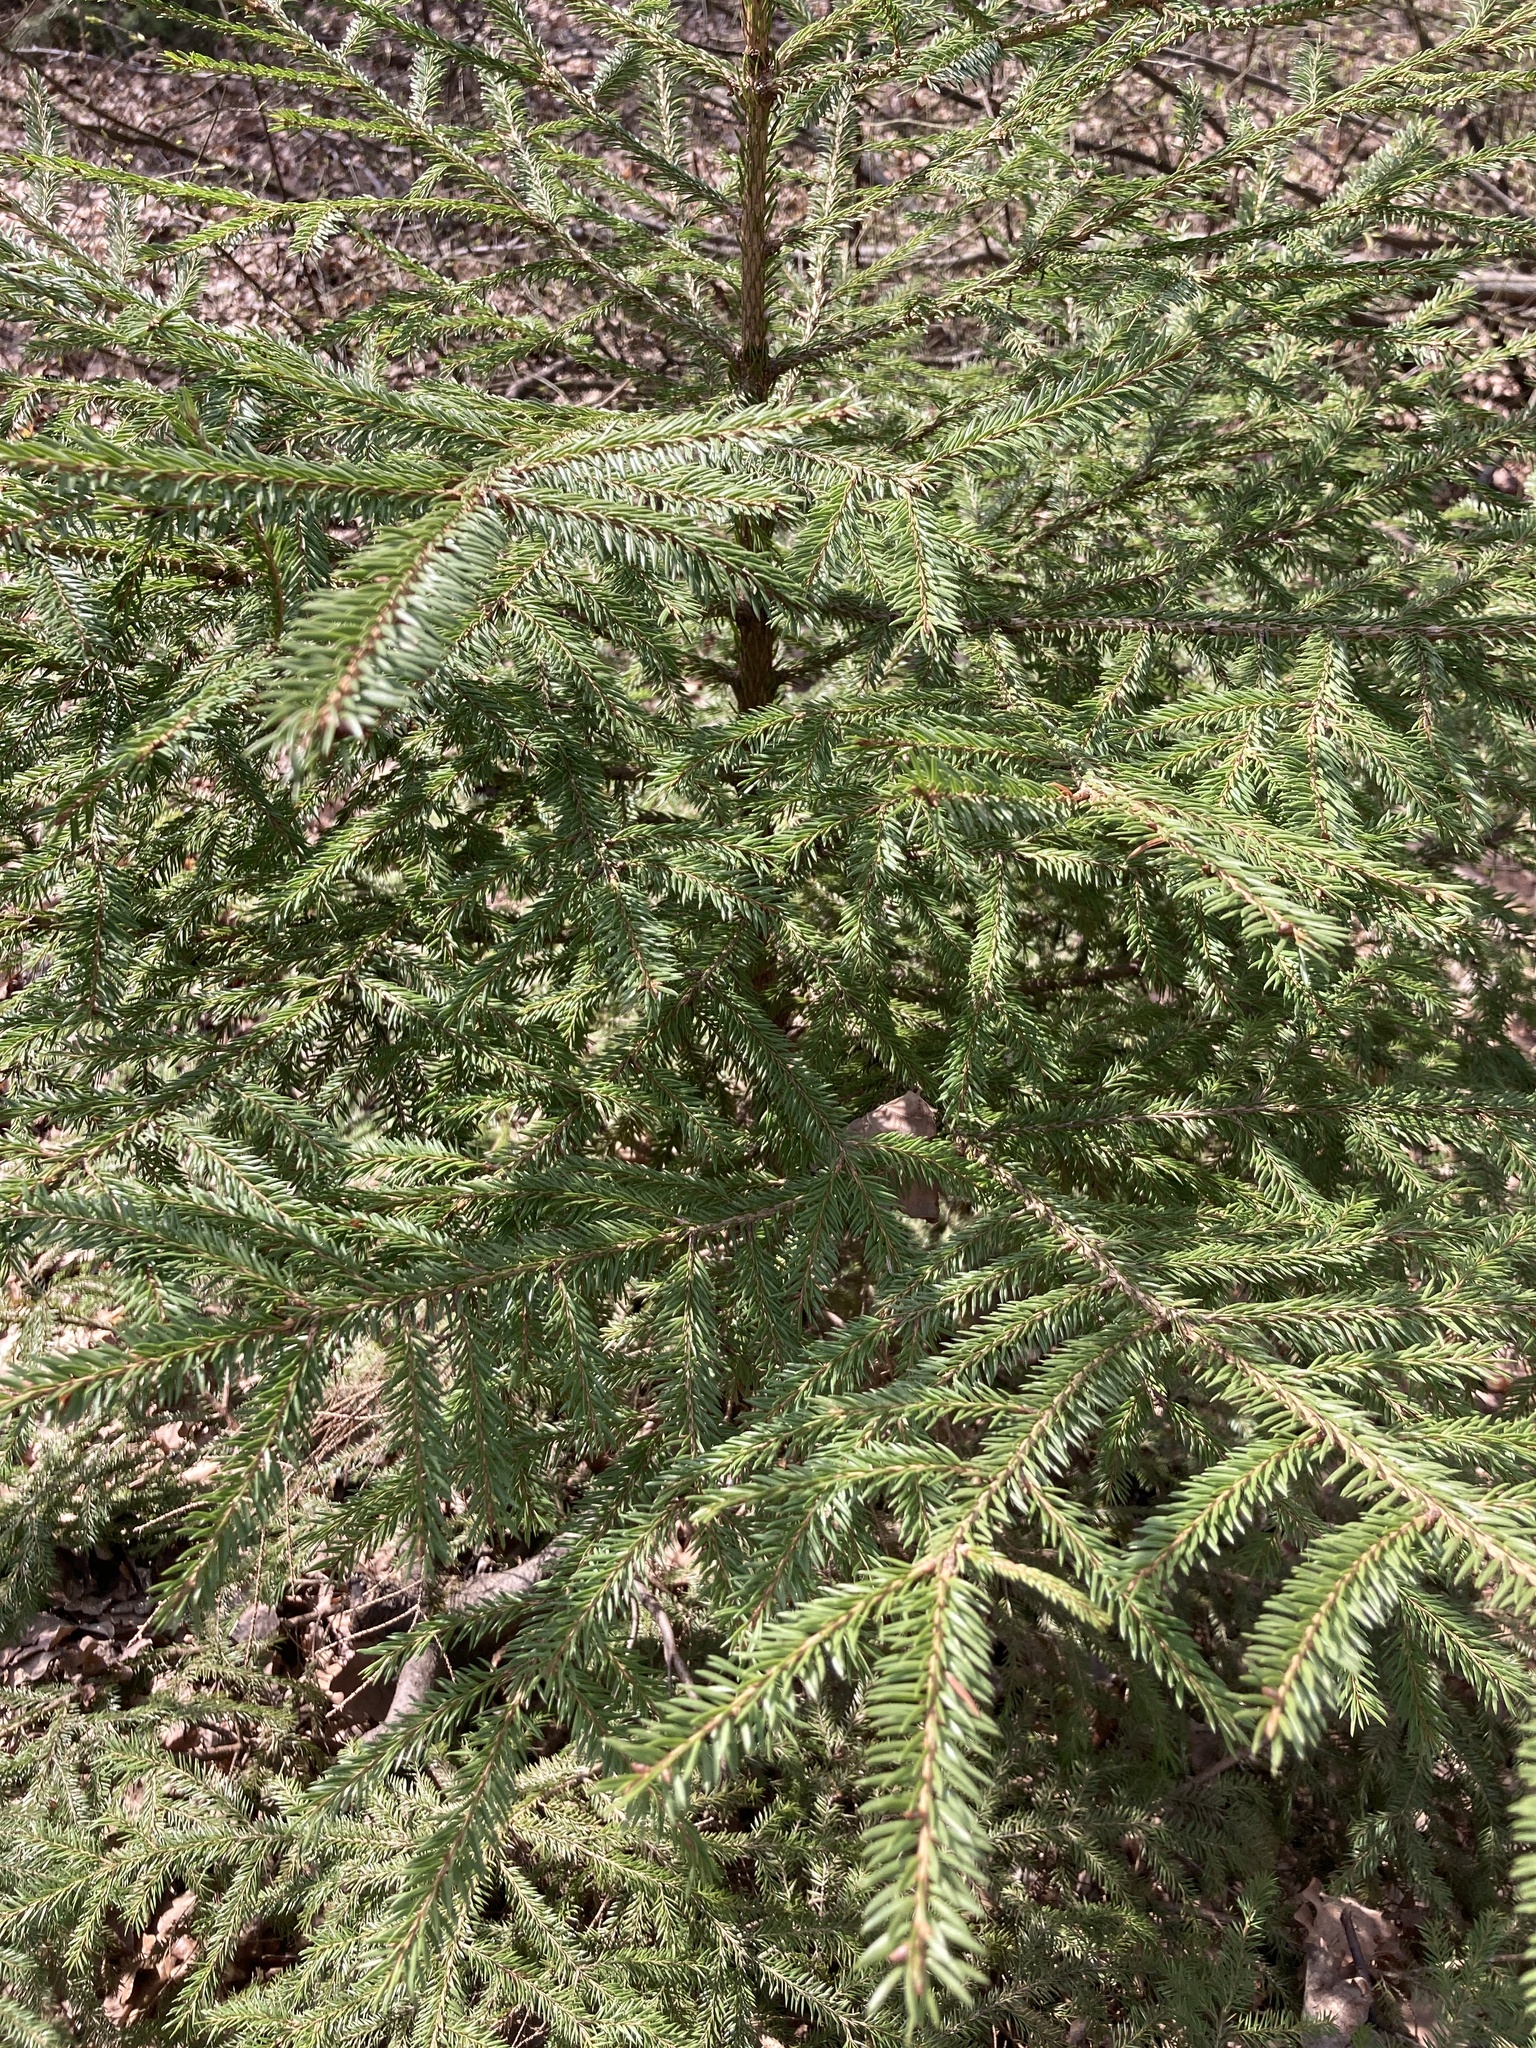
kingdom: Plantae
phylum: Tracheophyta
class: Pinopsida
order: Pinales
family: Pinaceae
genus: Picea
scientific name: Picea abies
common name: Norway spruce
